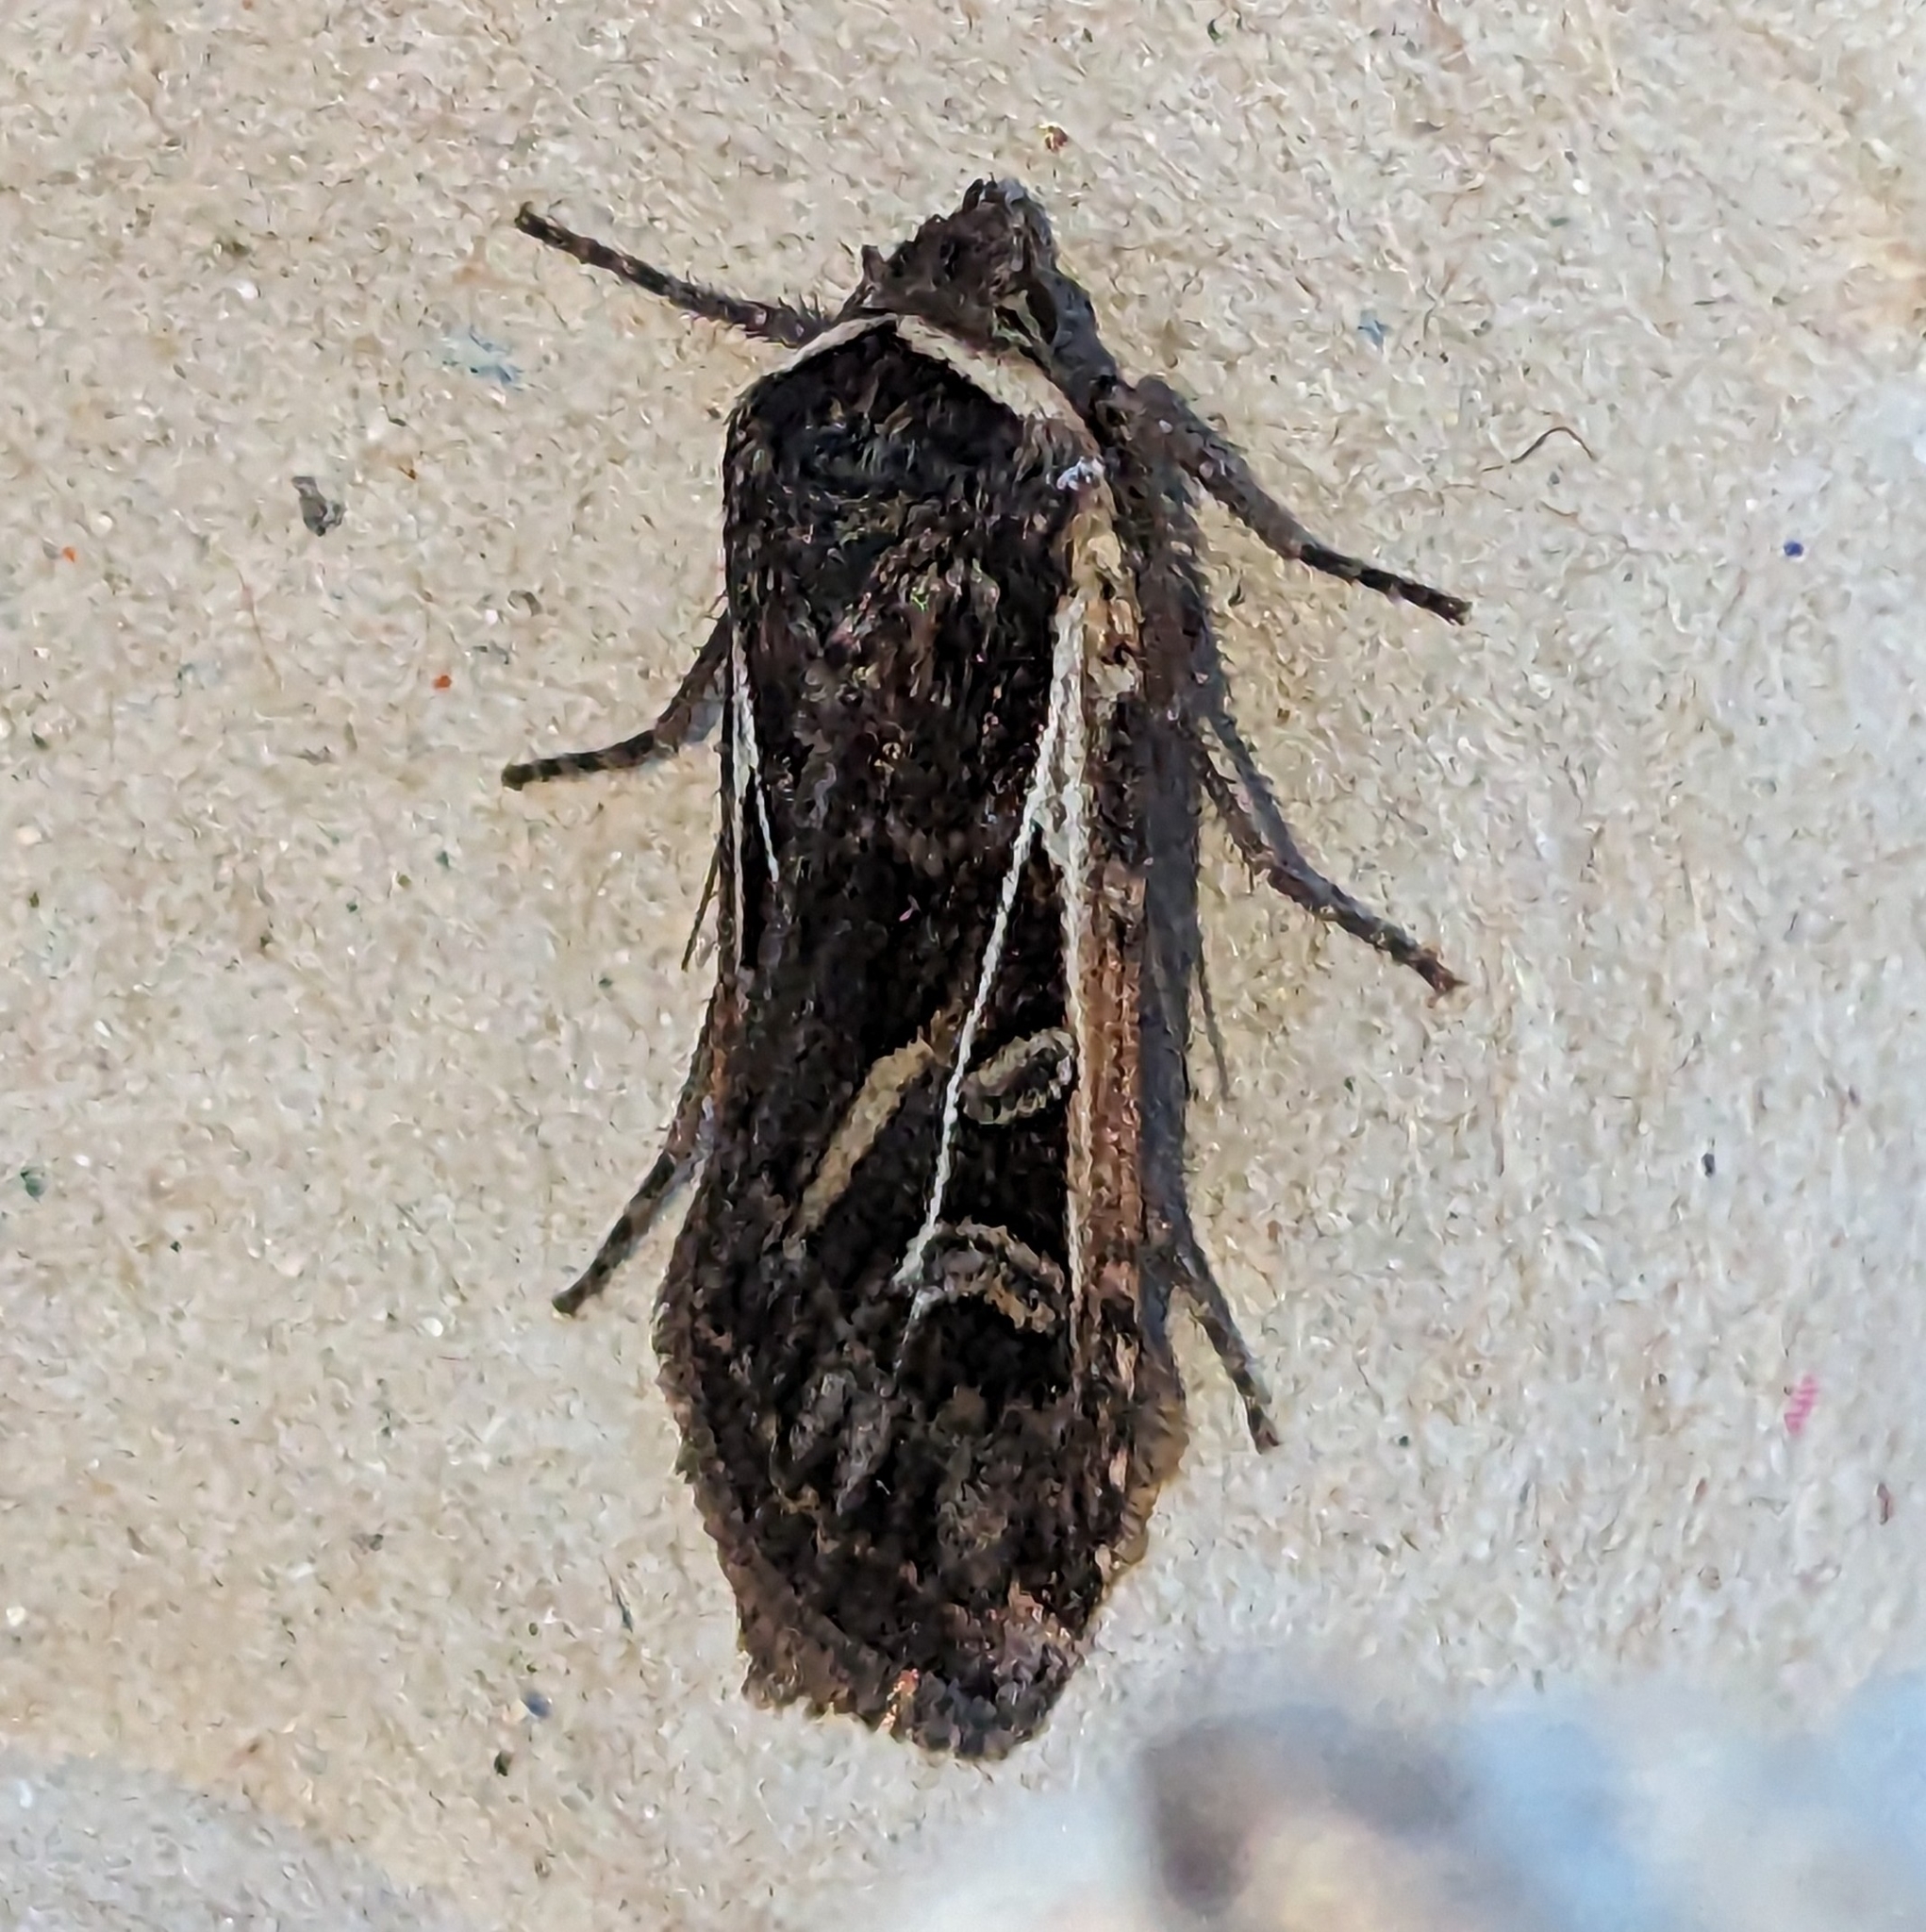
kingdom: Animalia
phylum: Arthropoda
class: Insecta
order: Lepidoptera
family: Noctuidae
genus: Euxoa
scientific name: Euxoa flavicollis
